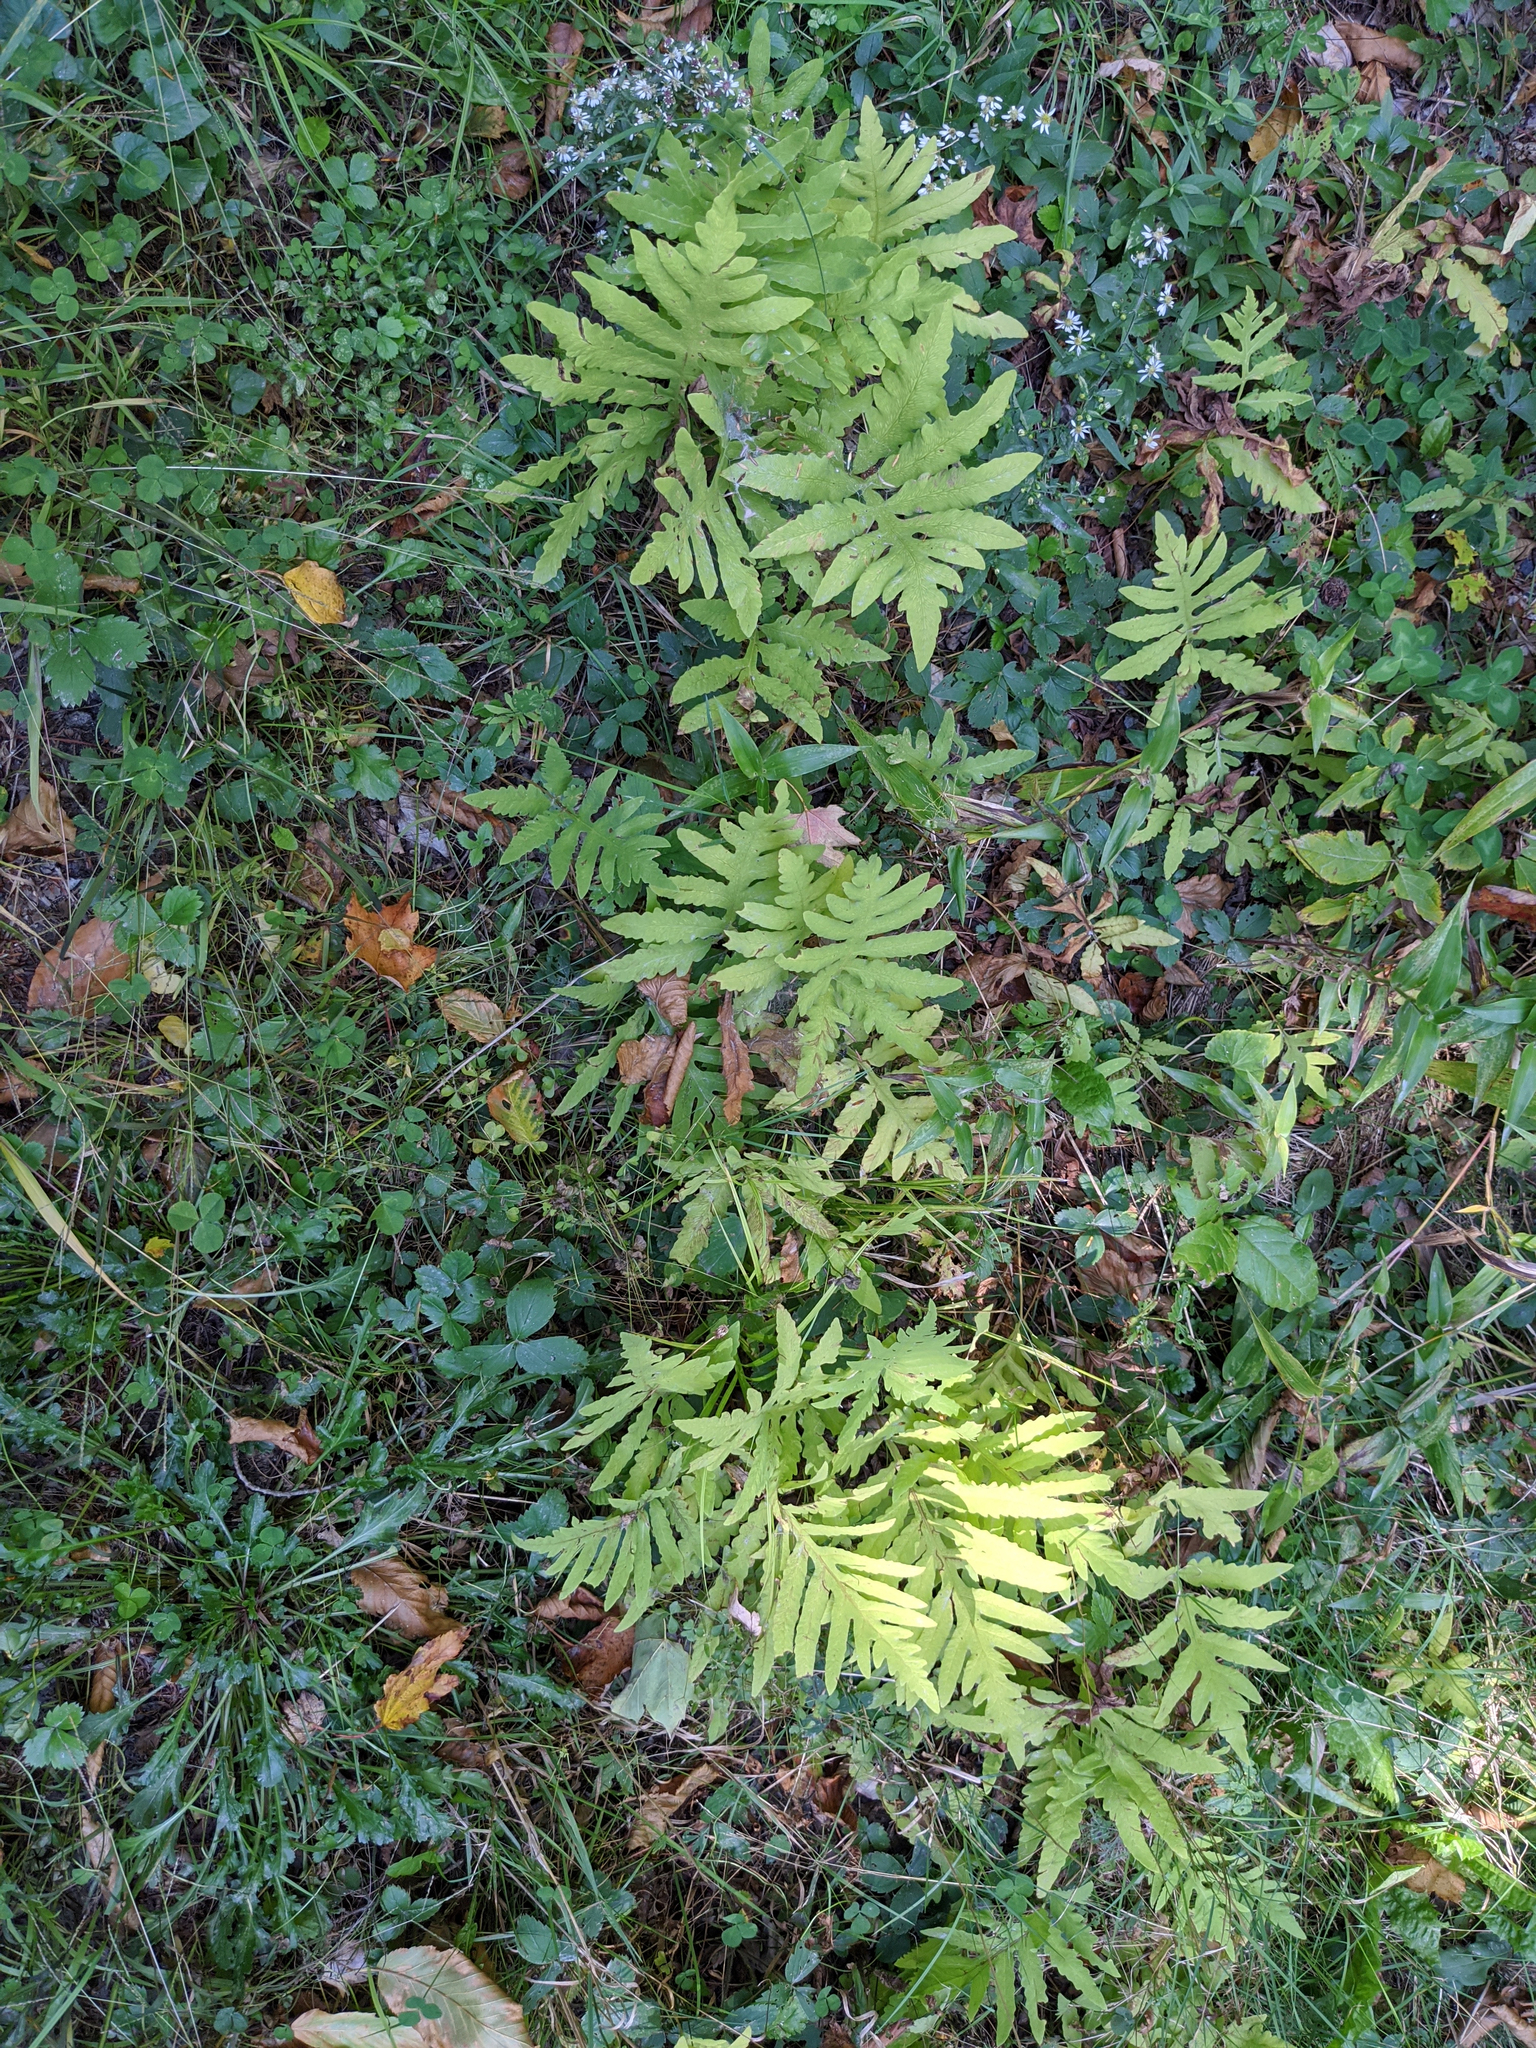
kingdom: Plantae
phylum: Tracheophyta
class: Polypodiopsida
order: Polypodiales
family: Onocleaceae
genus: Onoclea
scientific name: Onoclea sensibilis
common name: Sensitive fern
